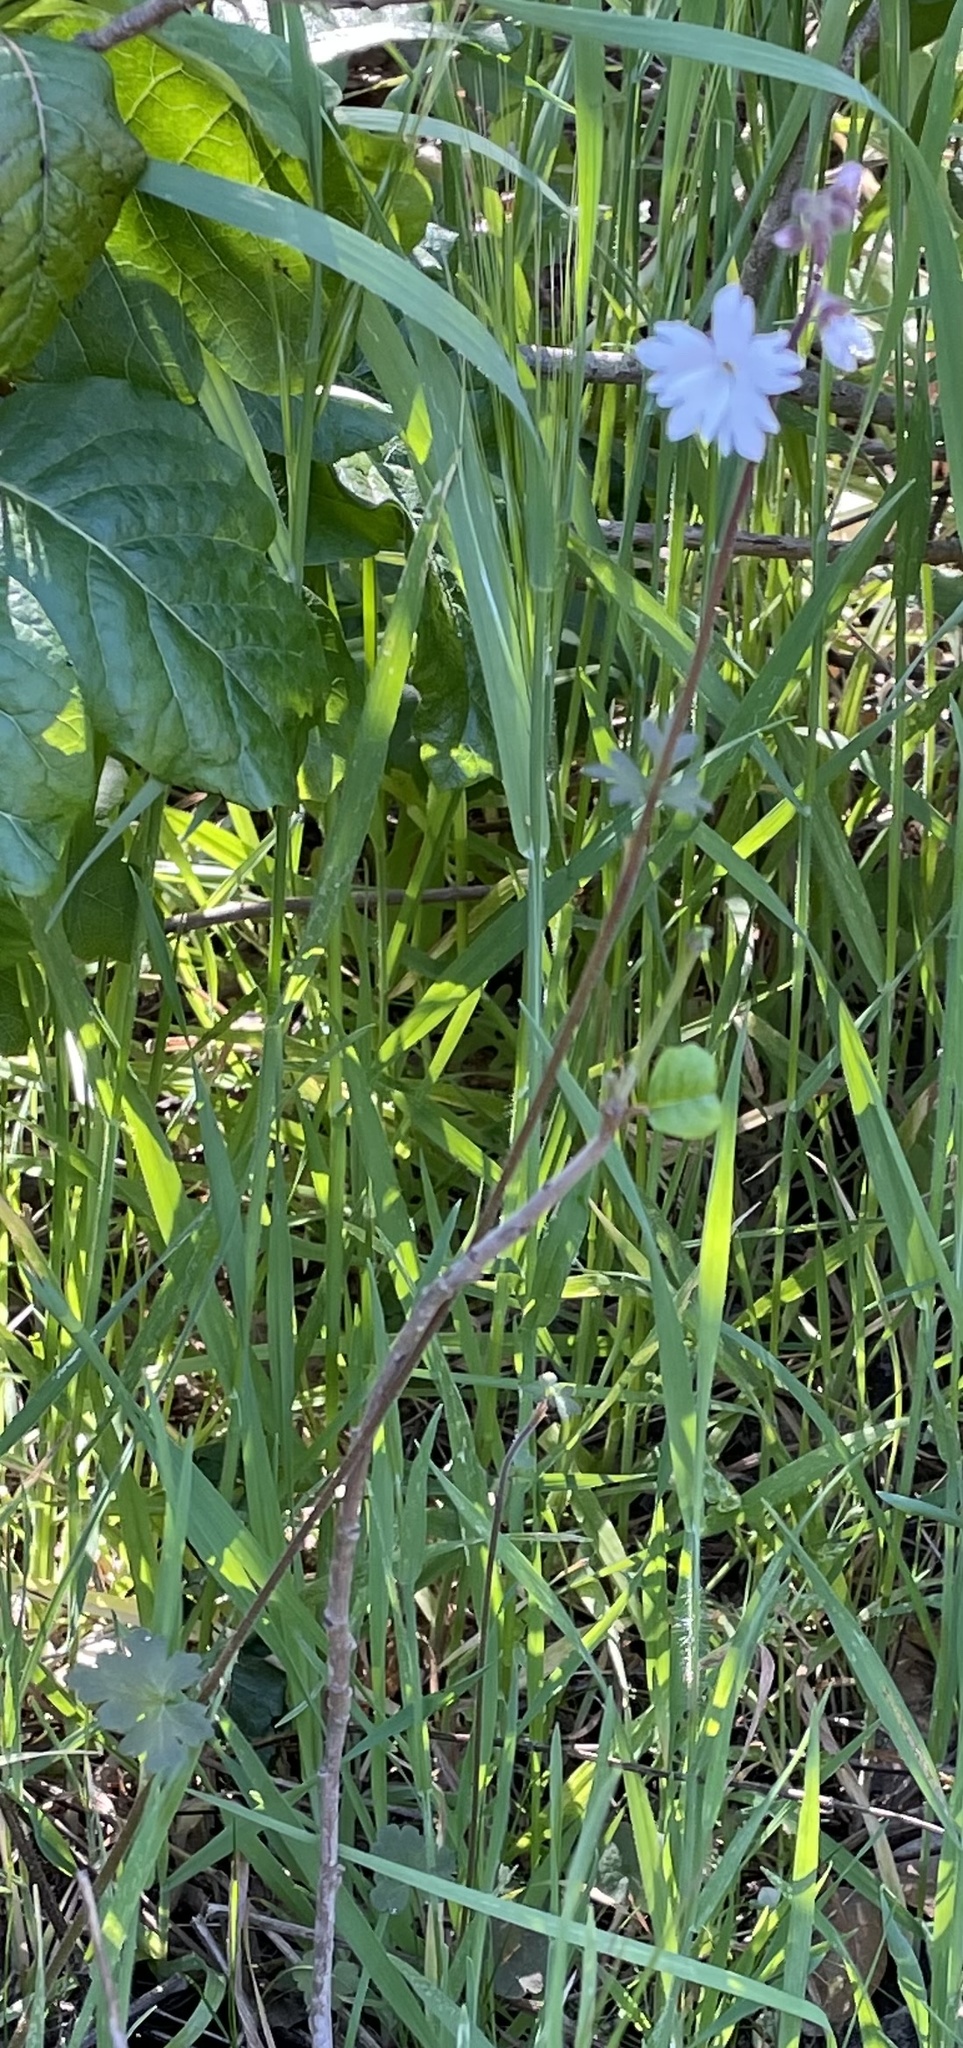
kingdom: Plantae
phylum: Tracheophyta
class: Magnoliopsida
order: Saxifragales
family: Saxifragaceae
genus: Lithophragma
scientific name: Lithophragma affine
